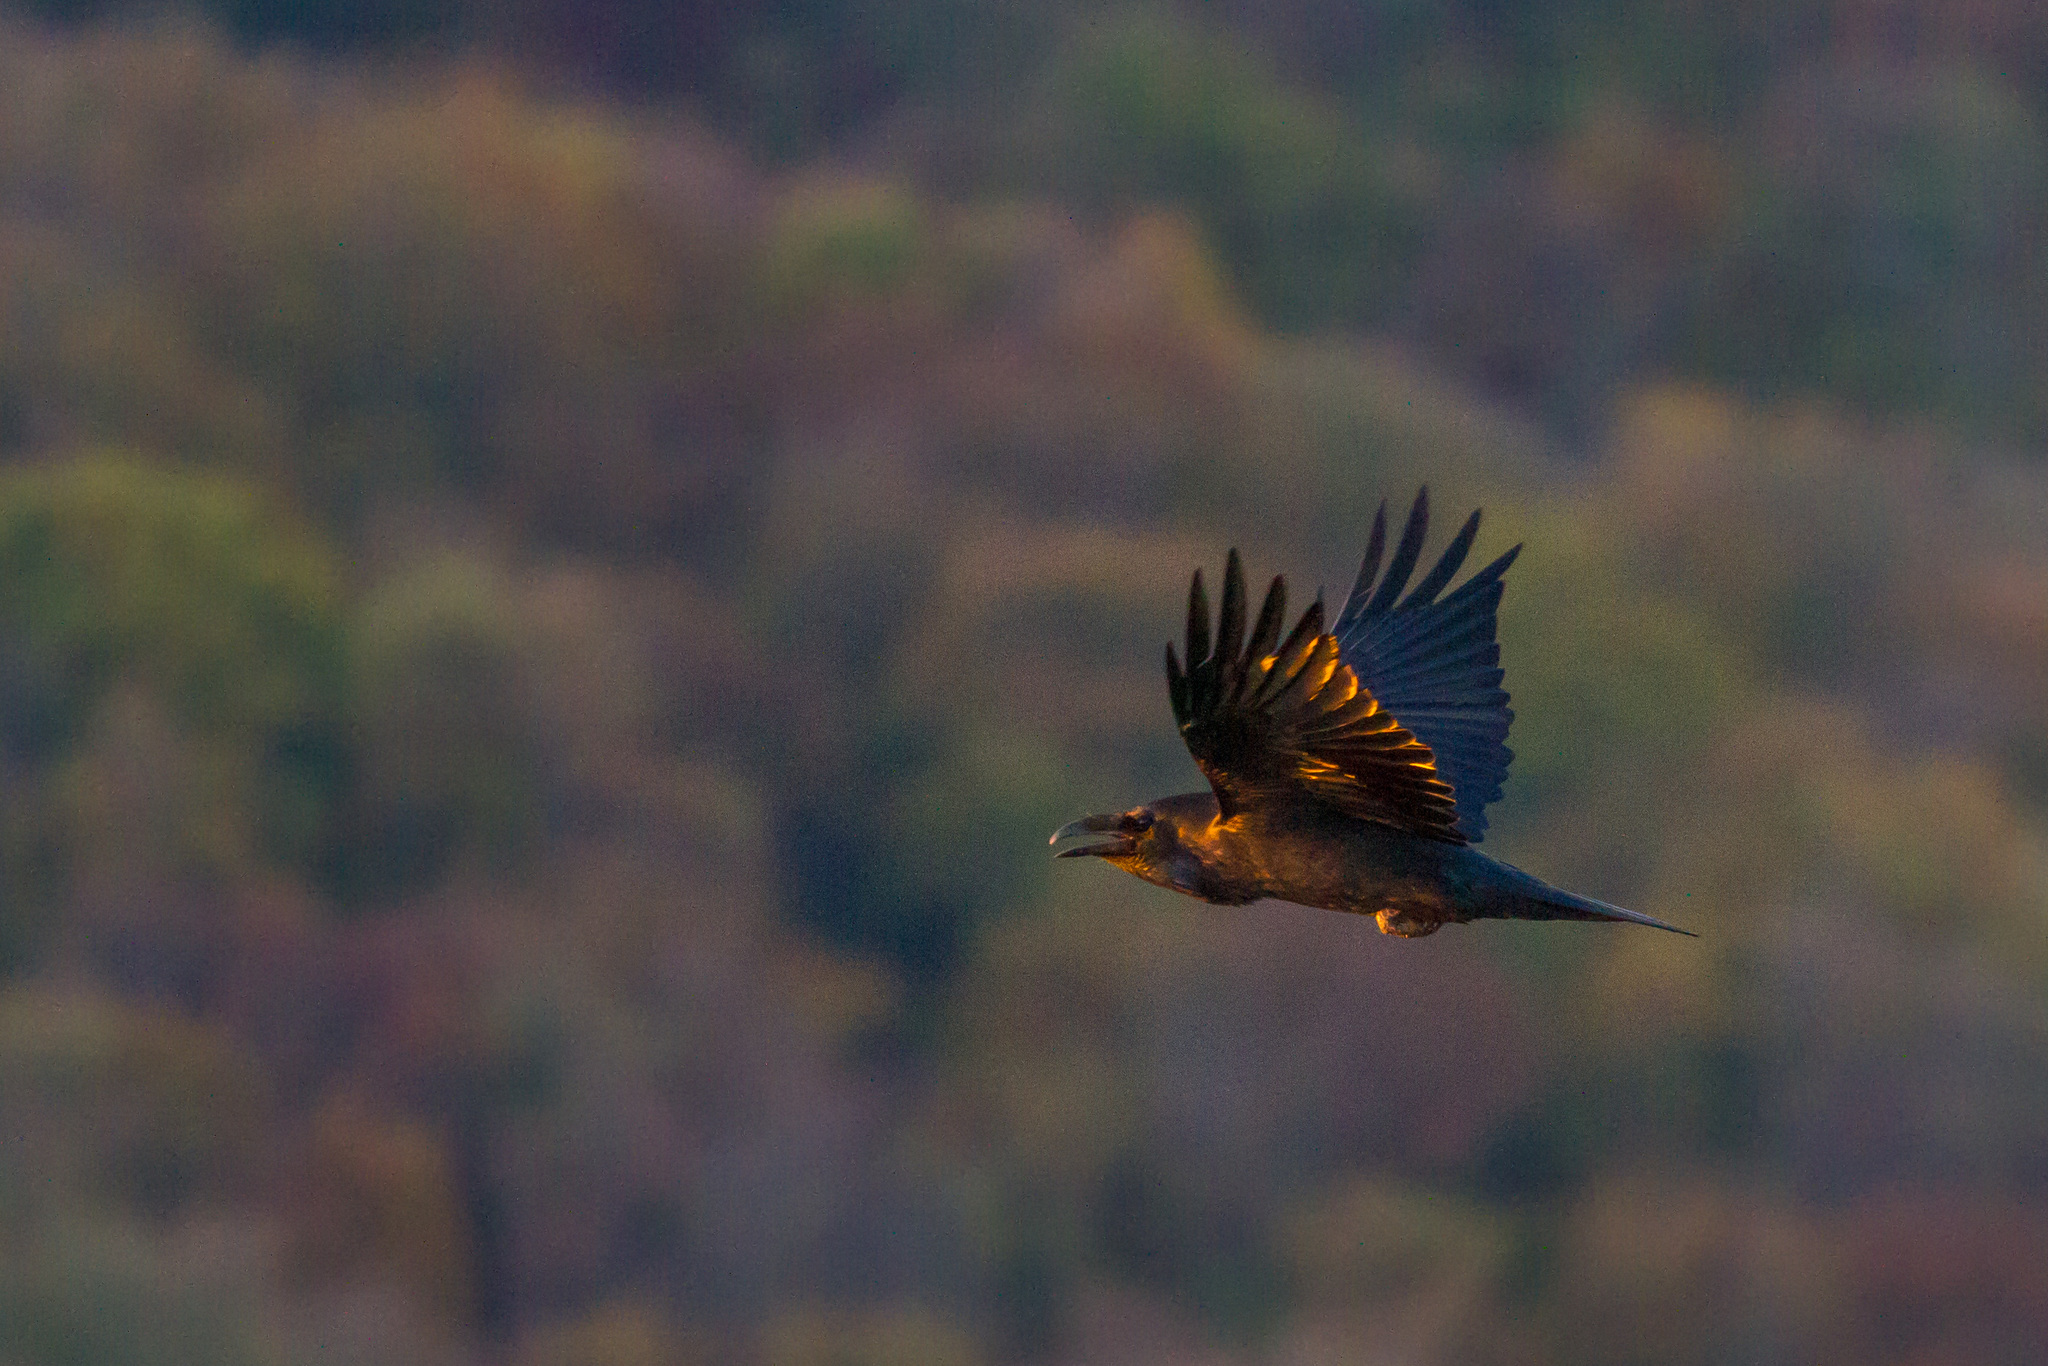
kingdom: Animalia
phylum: Chordata
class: Aves
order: Passeriformes
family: Corvidae
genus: Corvus
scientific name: Corvus corax
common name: Common raven
